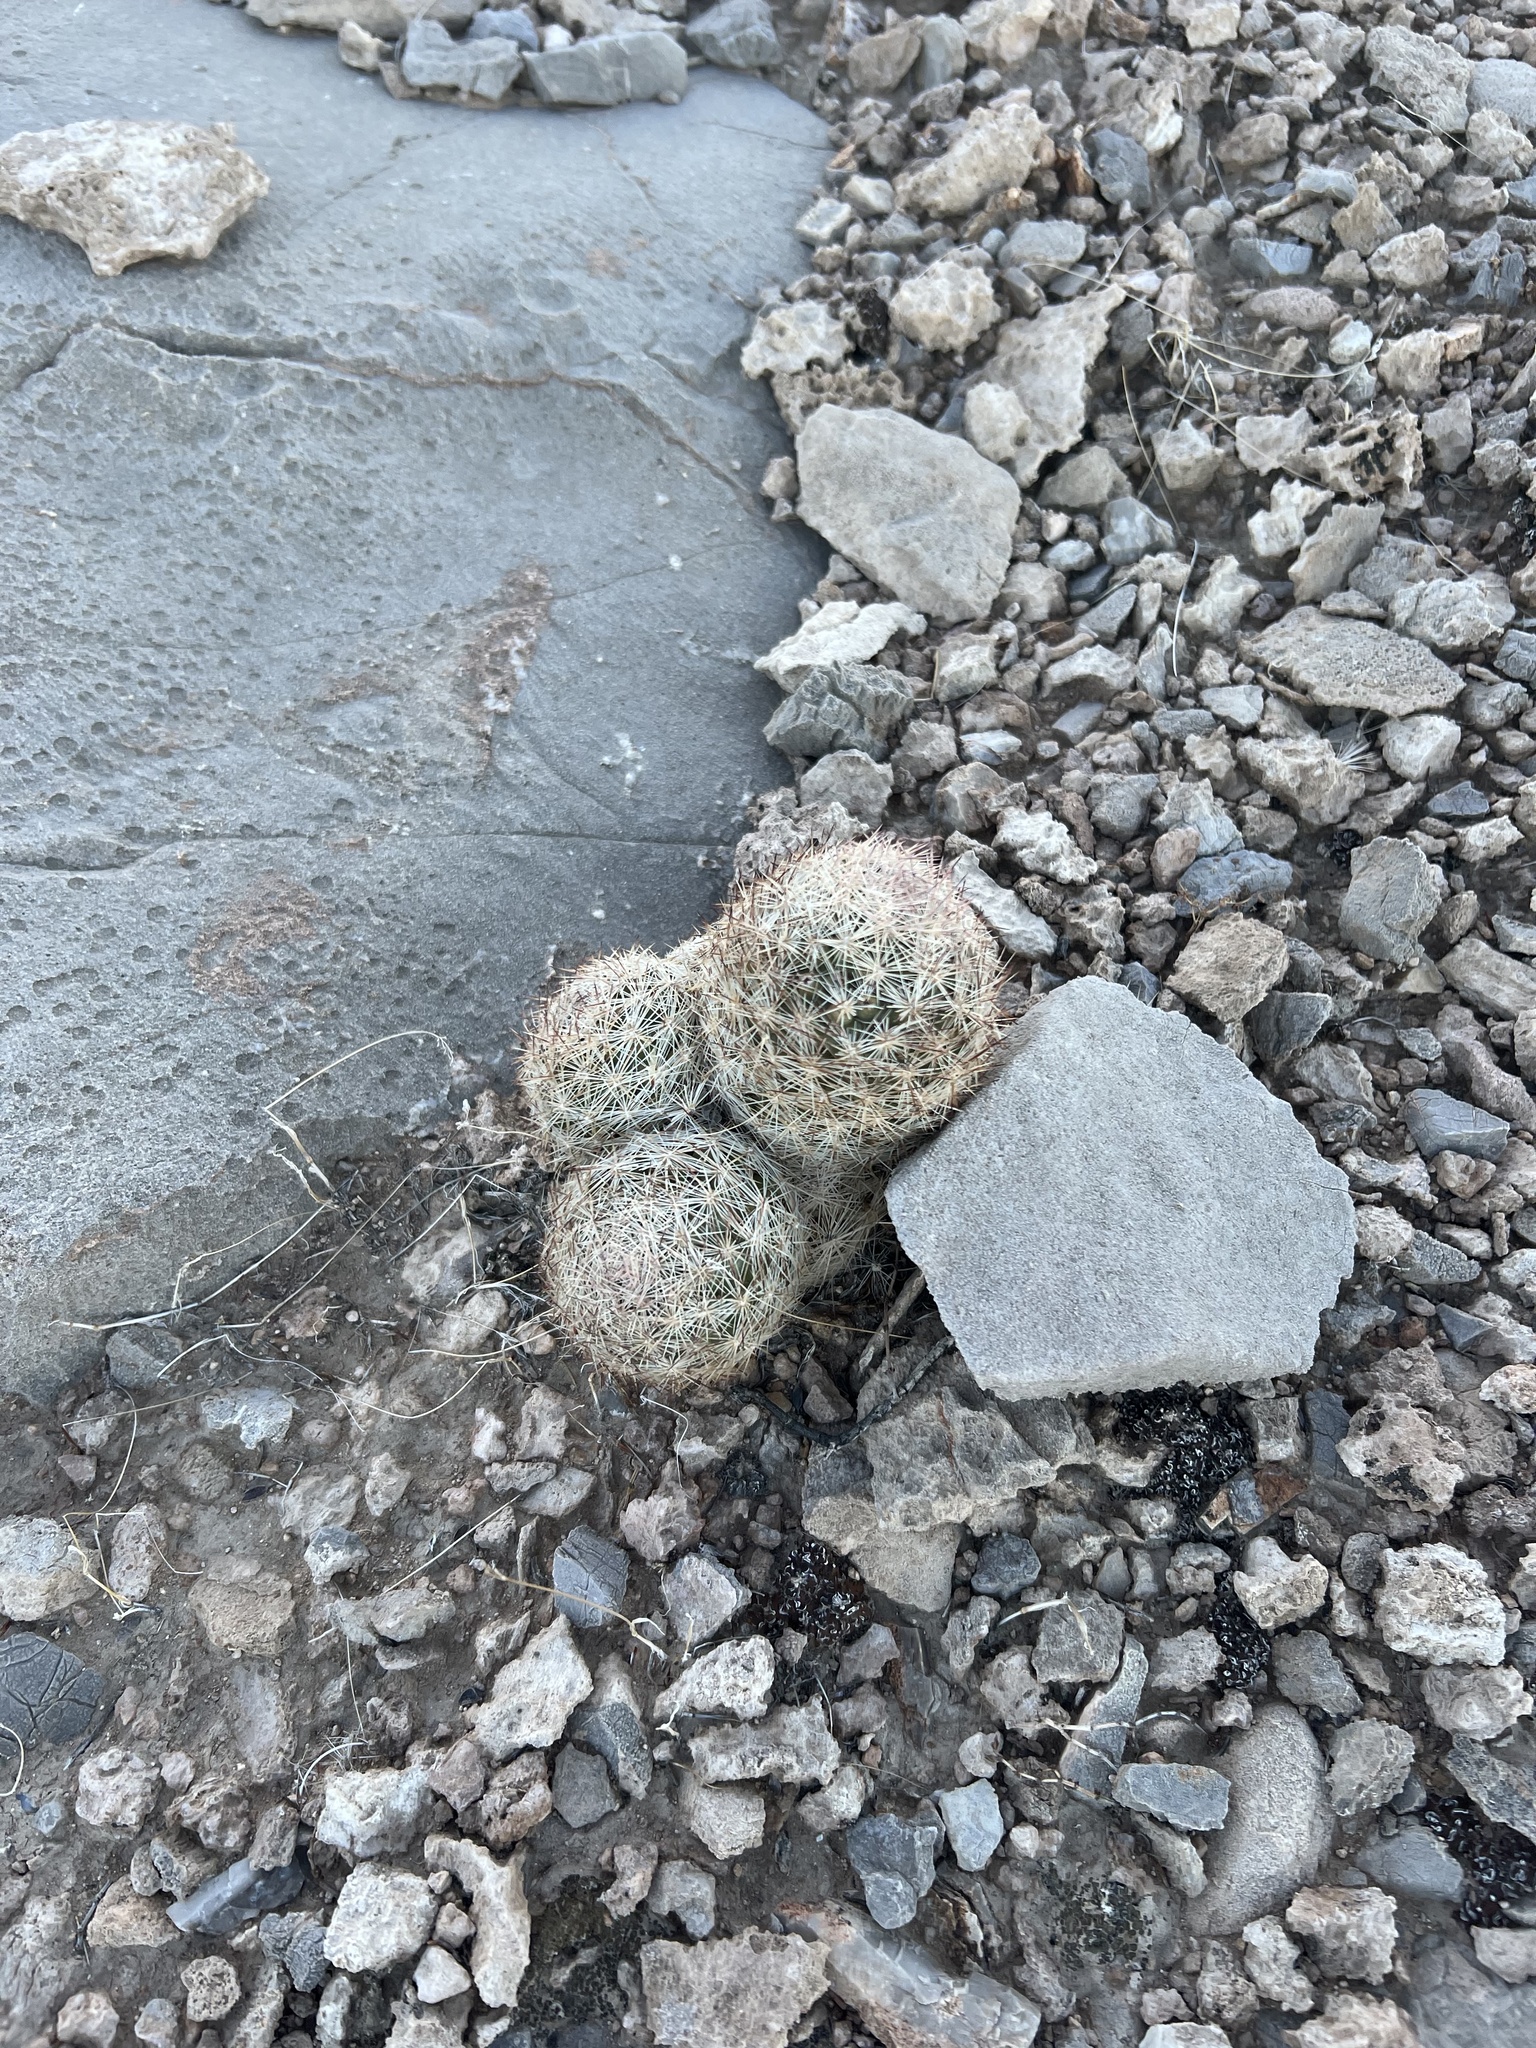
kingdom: Plantae
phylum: Tracheophyta
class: Magnoliopsida
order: Caryophyllales
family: Cactaceae
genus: Pelecyphora
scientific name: Pelecyphora dasyacantha
